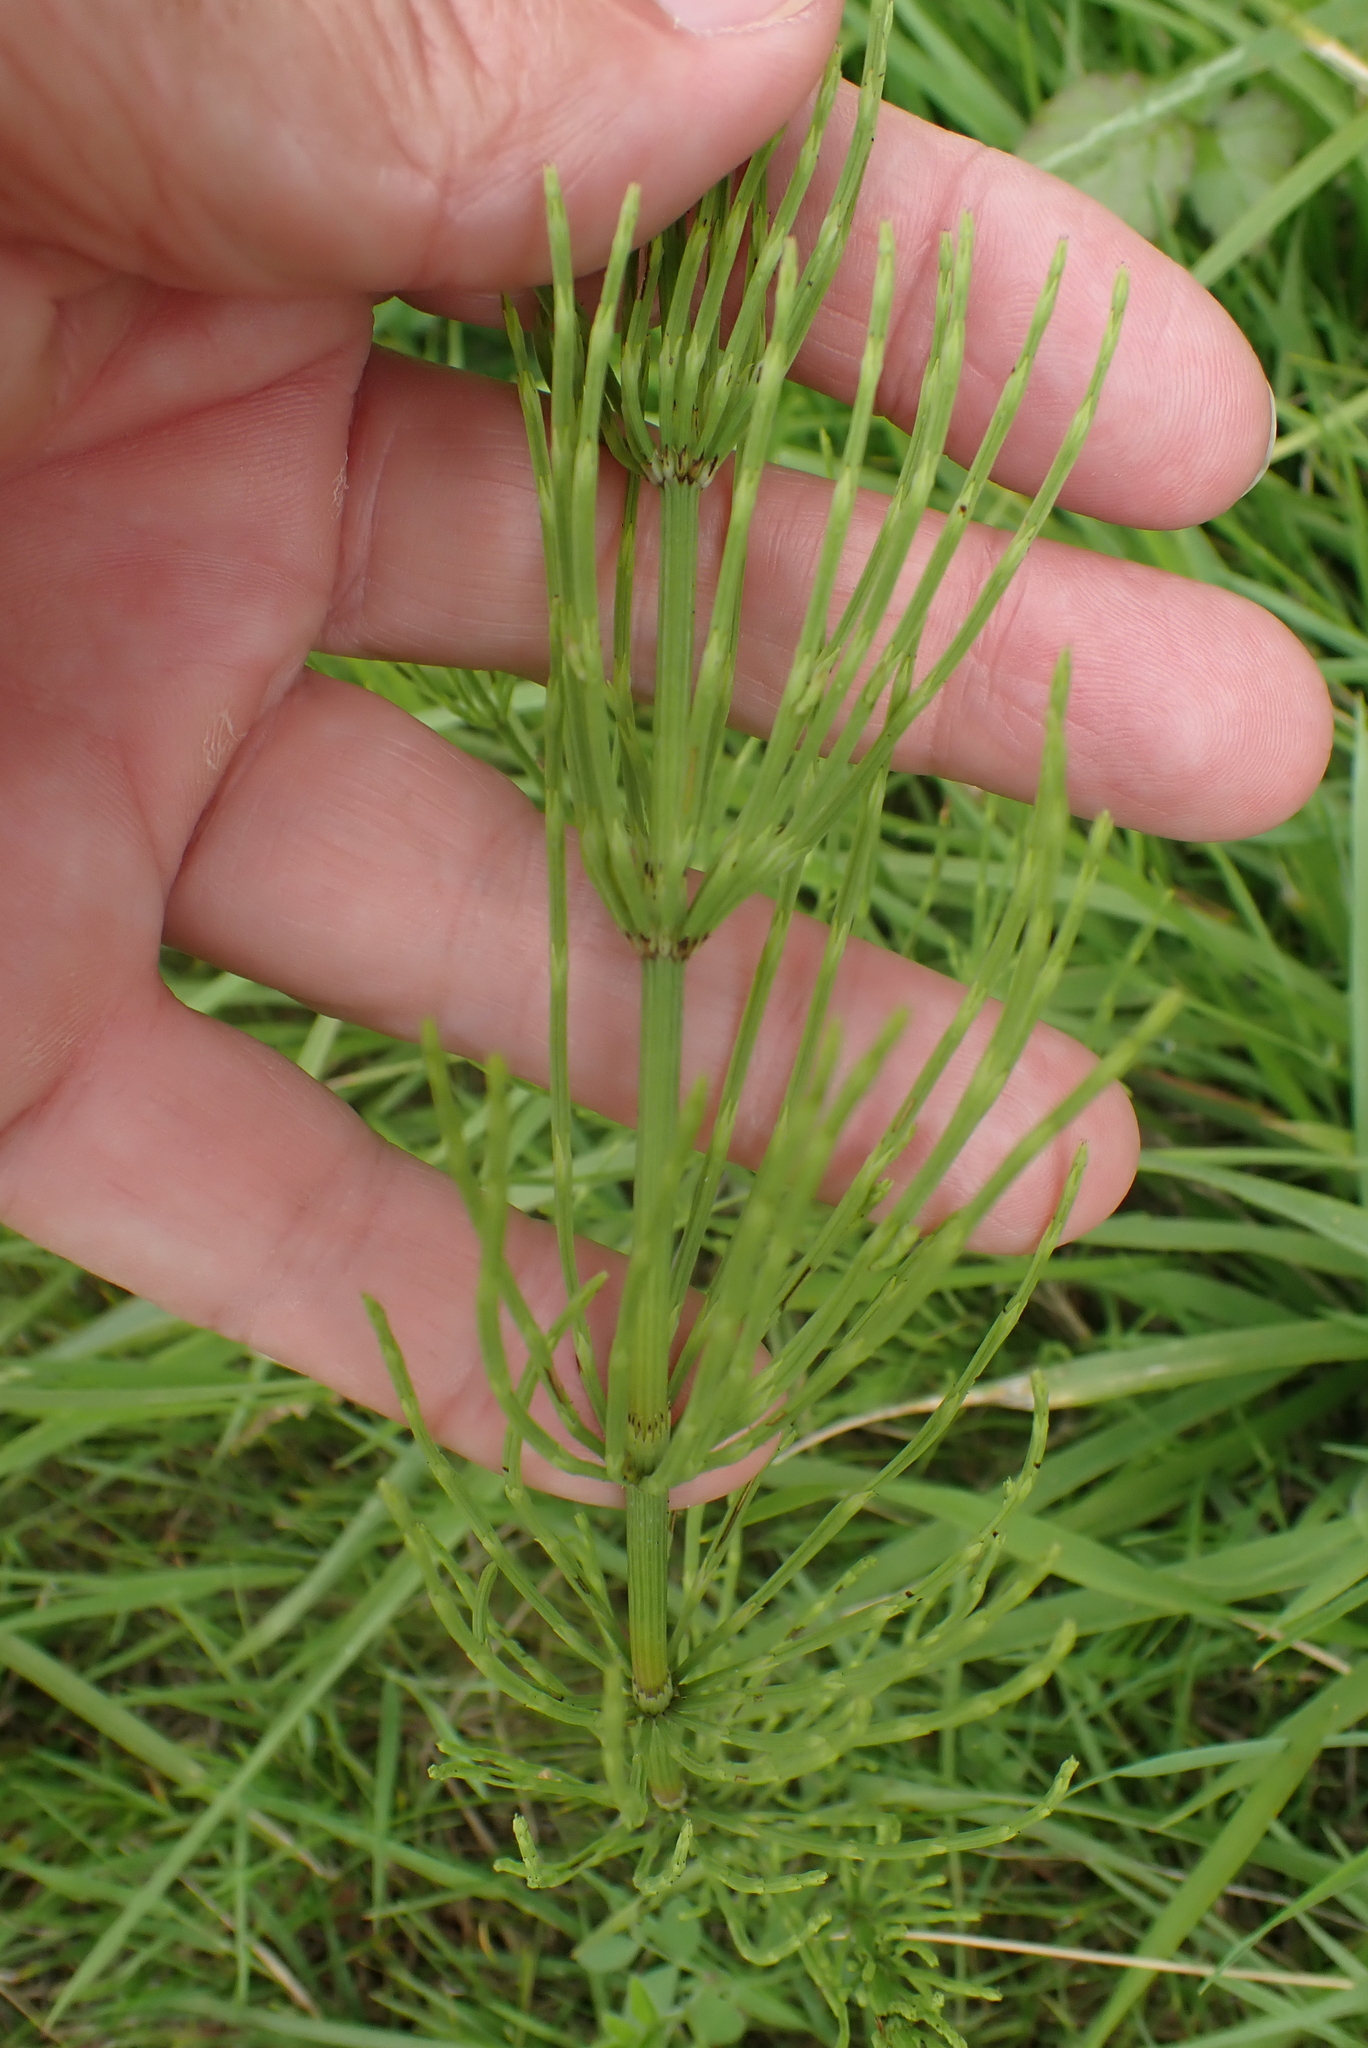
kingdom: Plantae
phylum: Tracheophyta
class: Polypodiopsida
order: Equisetales
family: Equisetaceae
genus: Equisetum
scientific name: Equisetum arvense
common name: Field horsetail
